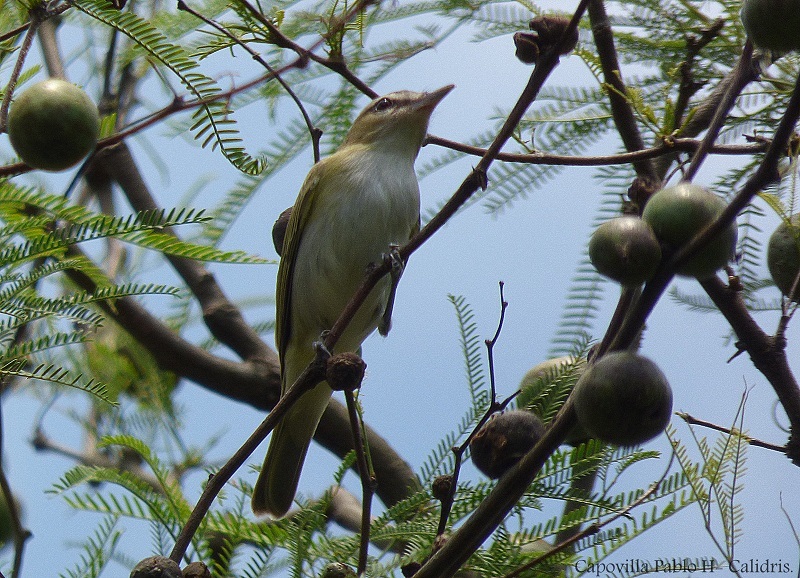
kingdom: Animalia
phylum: Chordata
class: Aves
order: Passeriformes
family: Vireonidae
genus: Vireo
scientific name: Vireo olivaceus
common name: Red-eyed vireo
